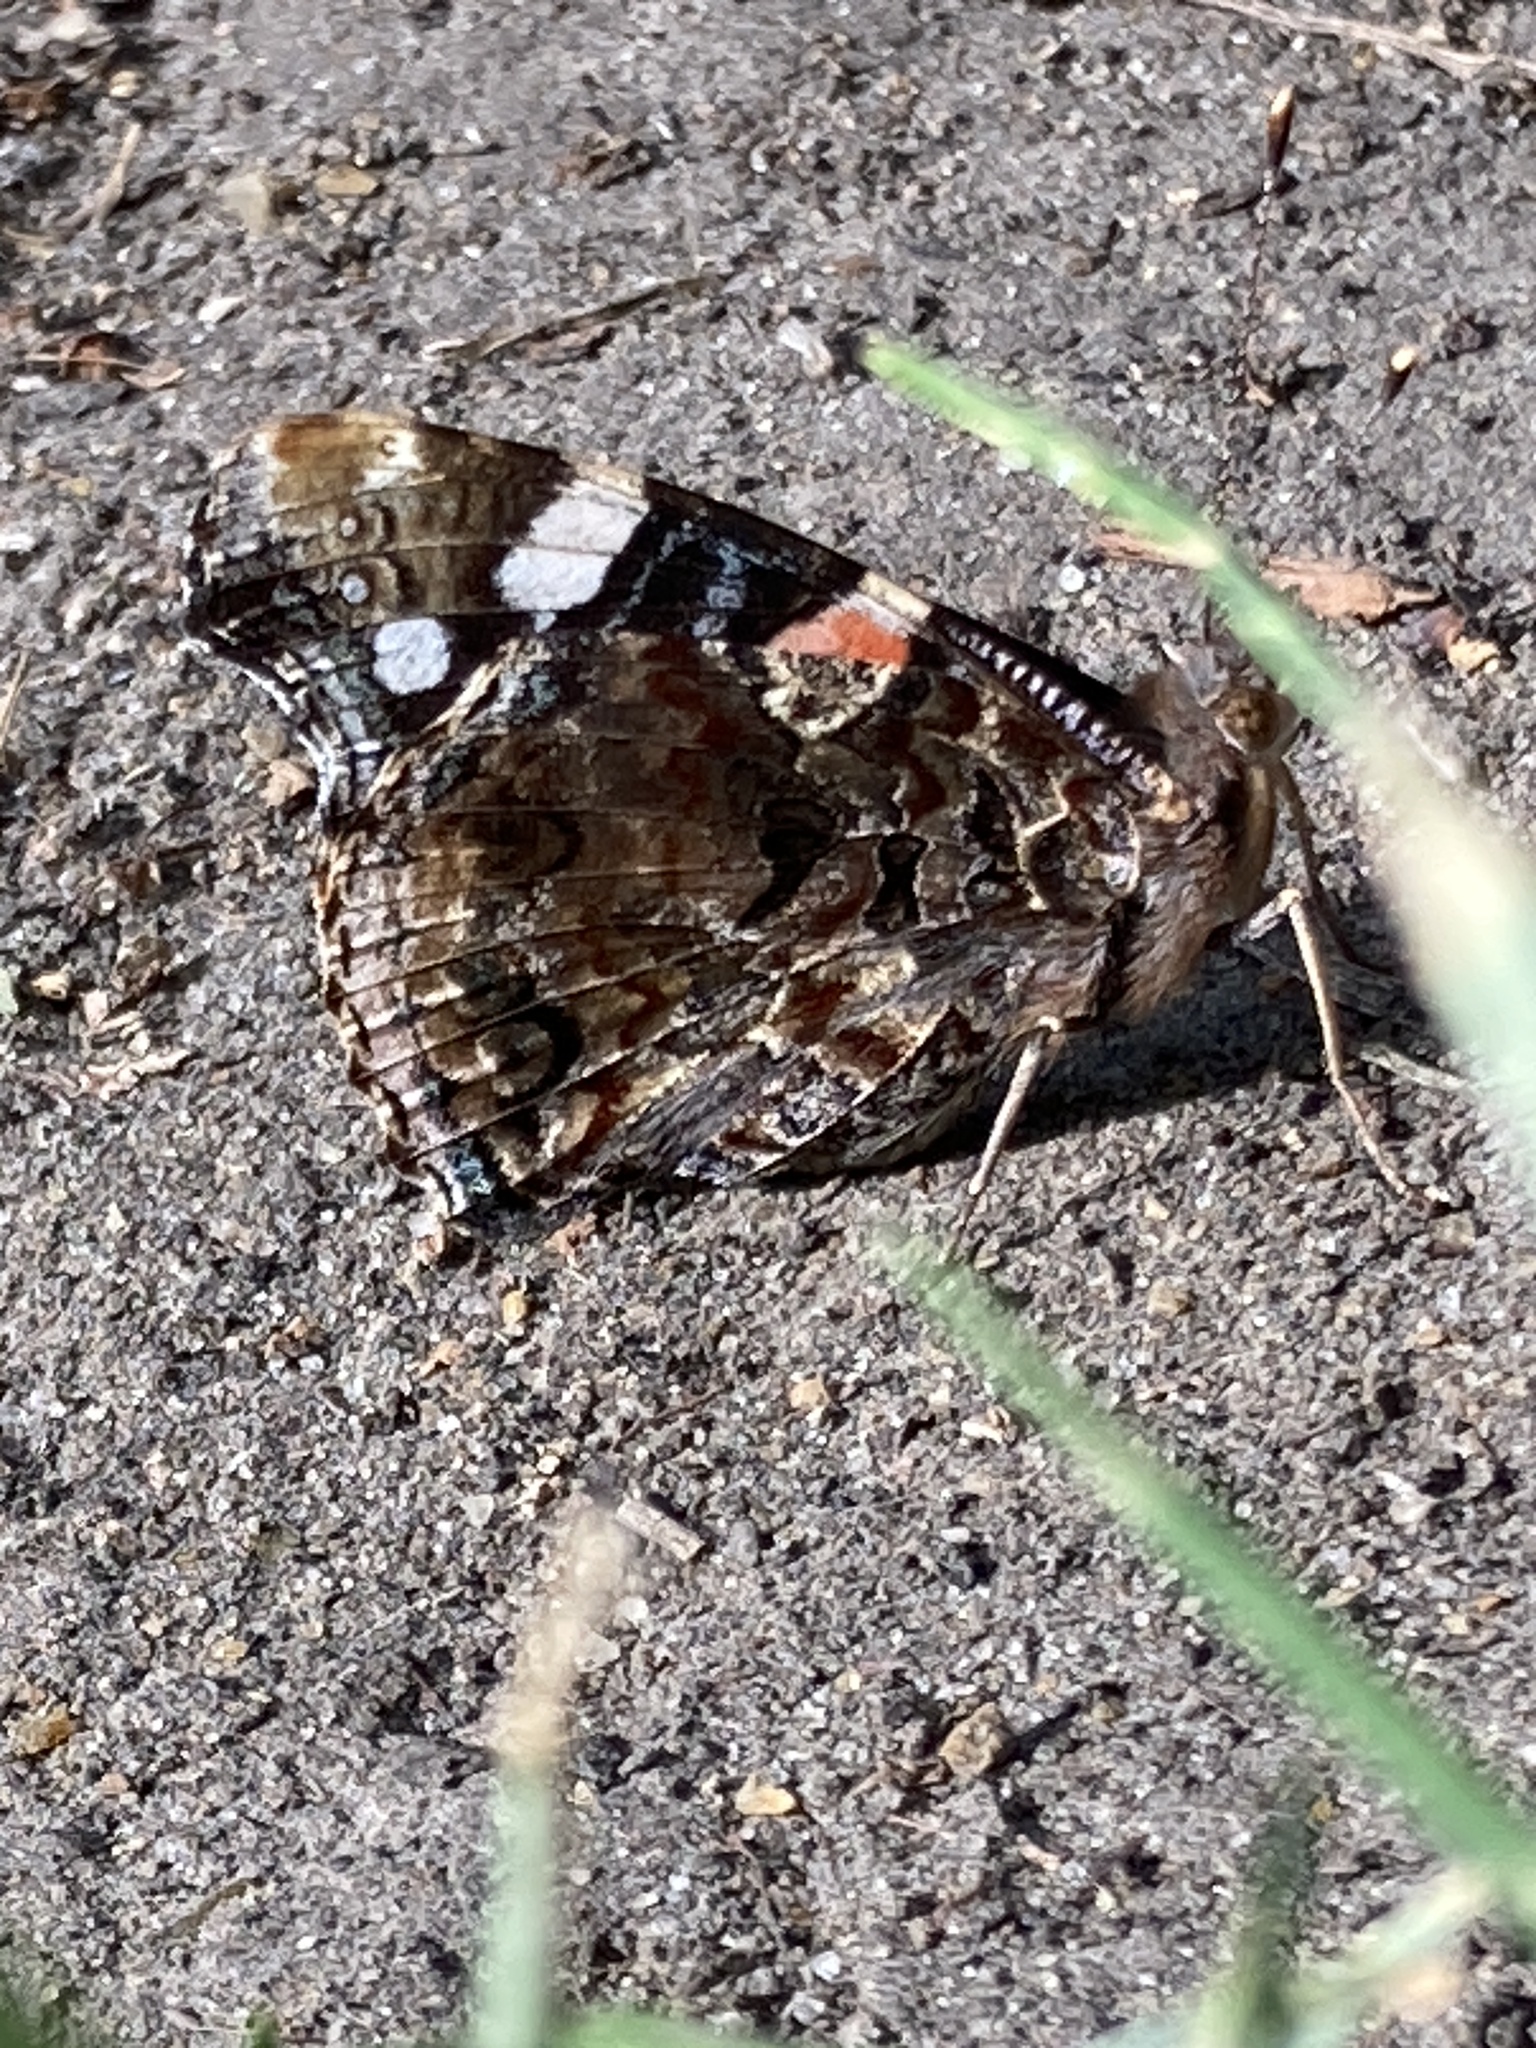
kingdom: Animalia
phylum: Arthropoda
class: Insecta
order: Lepidoptera
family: Nymphalidae
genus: Vanessa
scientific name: Vanessa atalanta
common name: Red admiral
